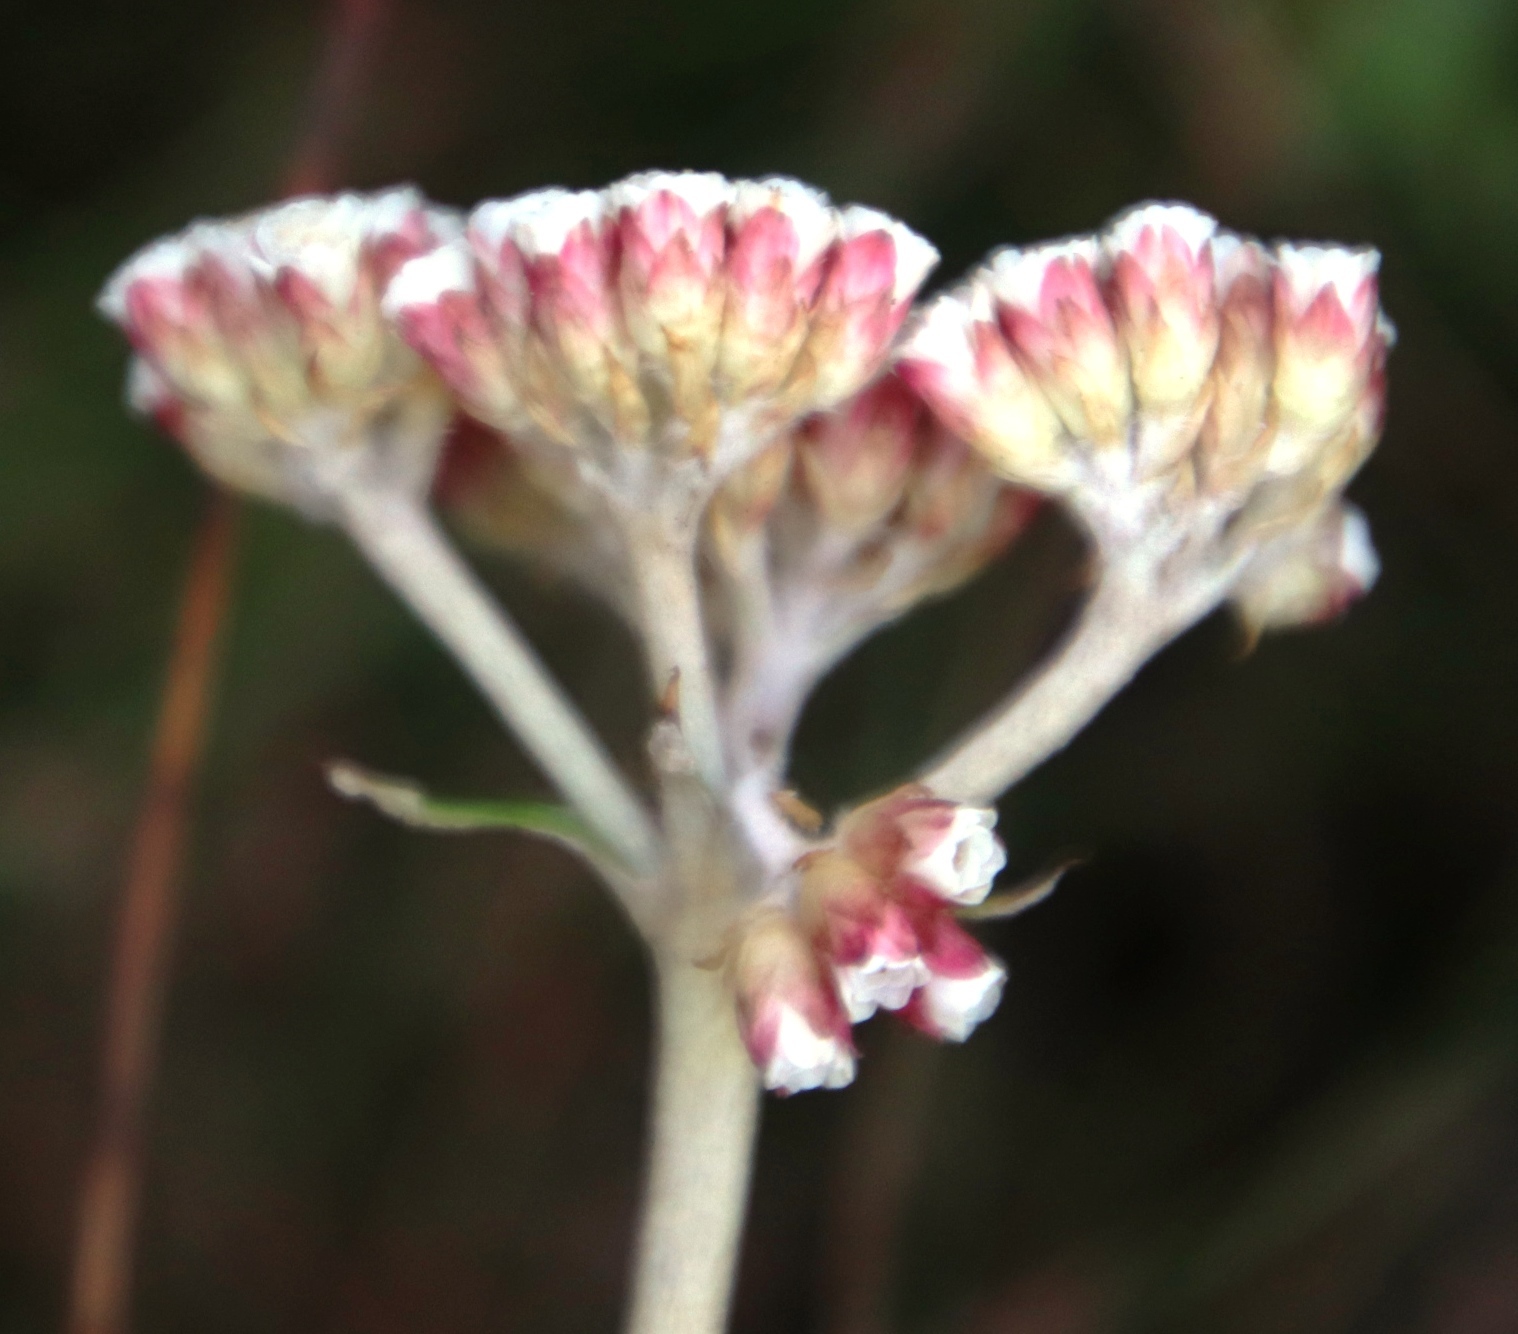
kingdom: Plantae
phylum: Tracheophyta
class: Magnoliopsida
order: Asterales
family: Asteraceae
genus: Anaxeton
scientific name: Anaxeton arborescens
